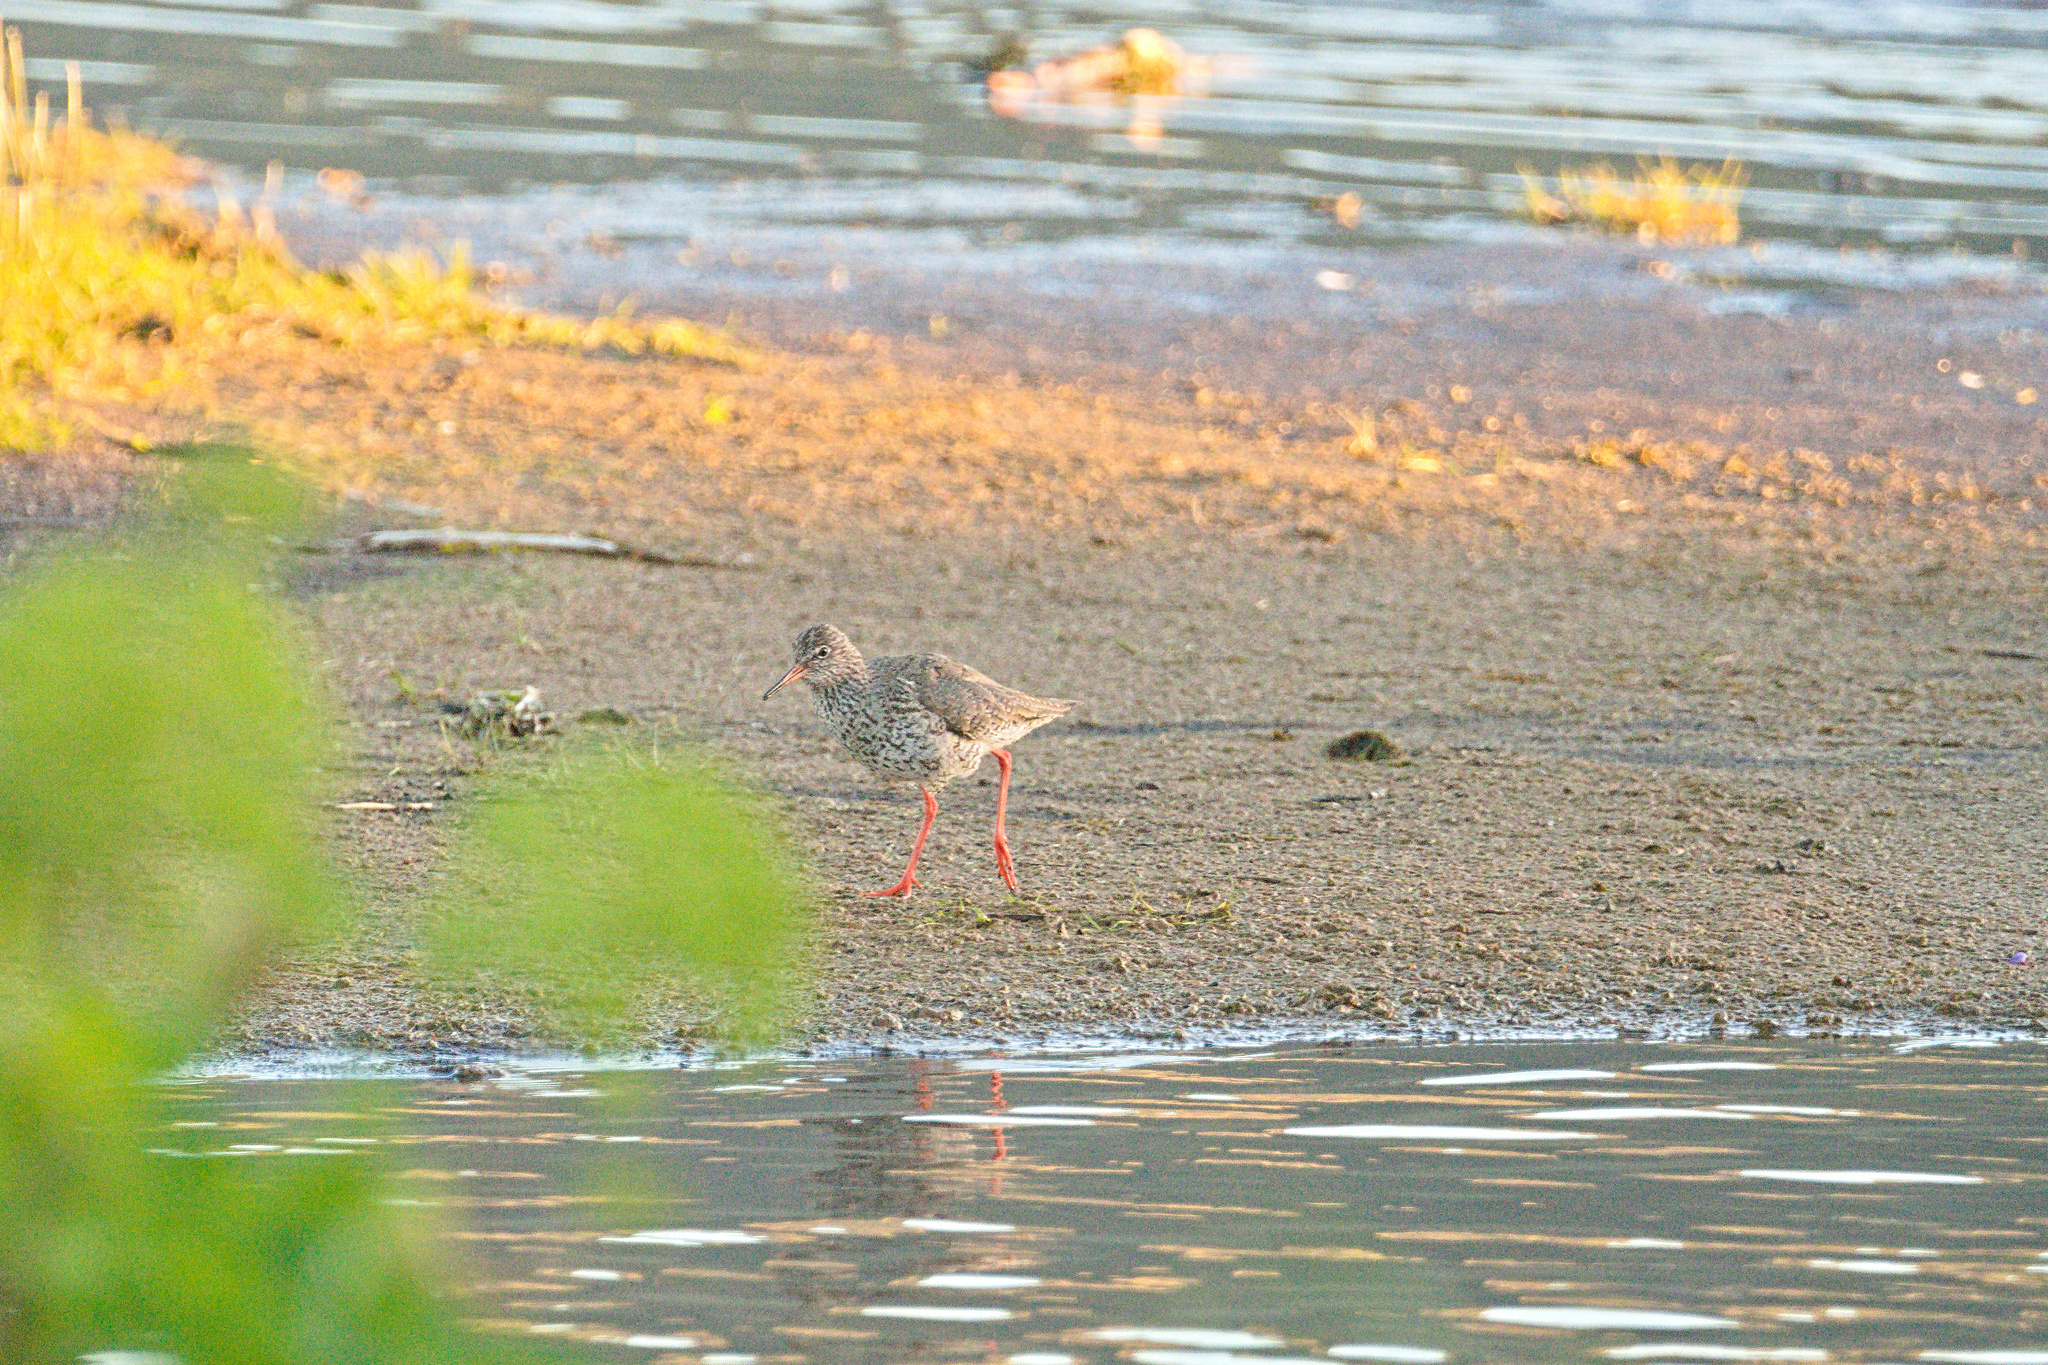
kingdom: Animalia
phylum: Chordata
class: Aves
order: Charadriiformes
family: Scolopacidae
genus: Tringa
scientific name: Tringa totanus
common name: Common redshank
